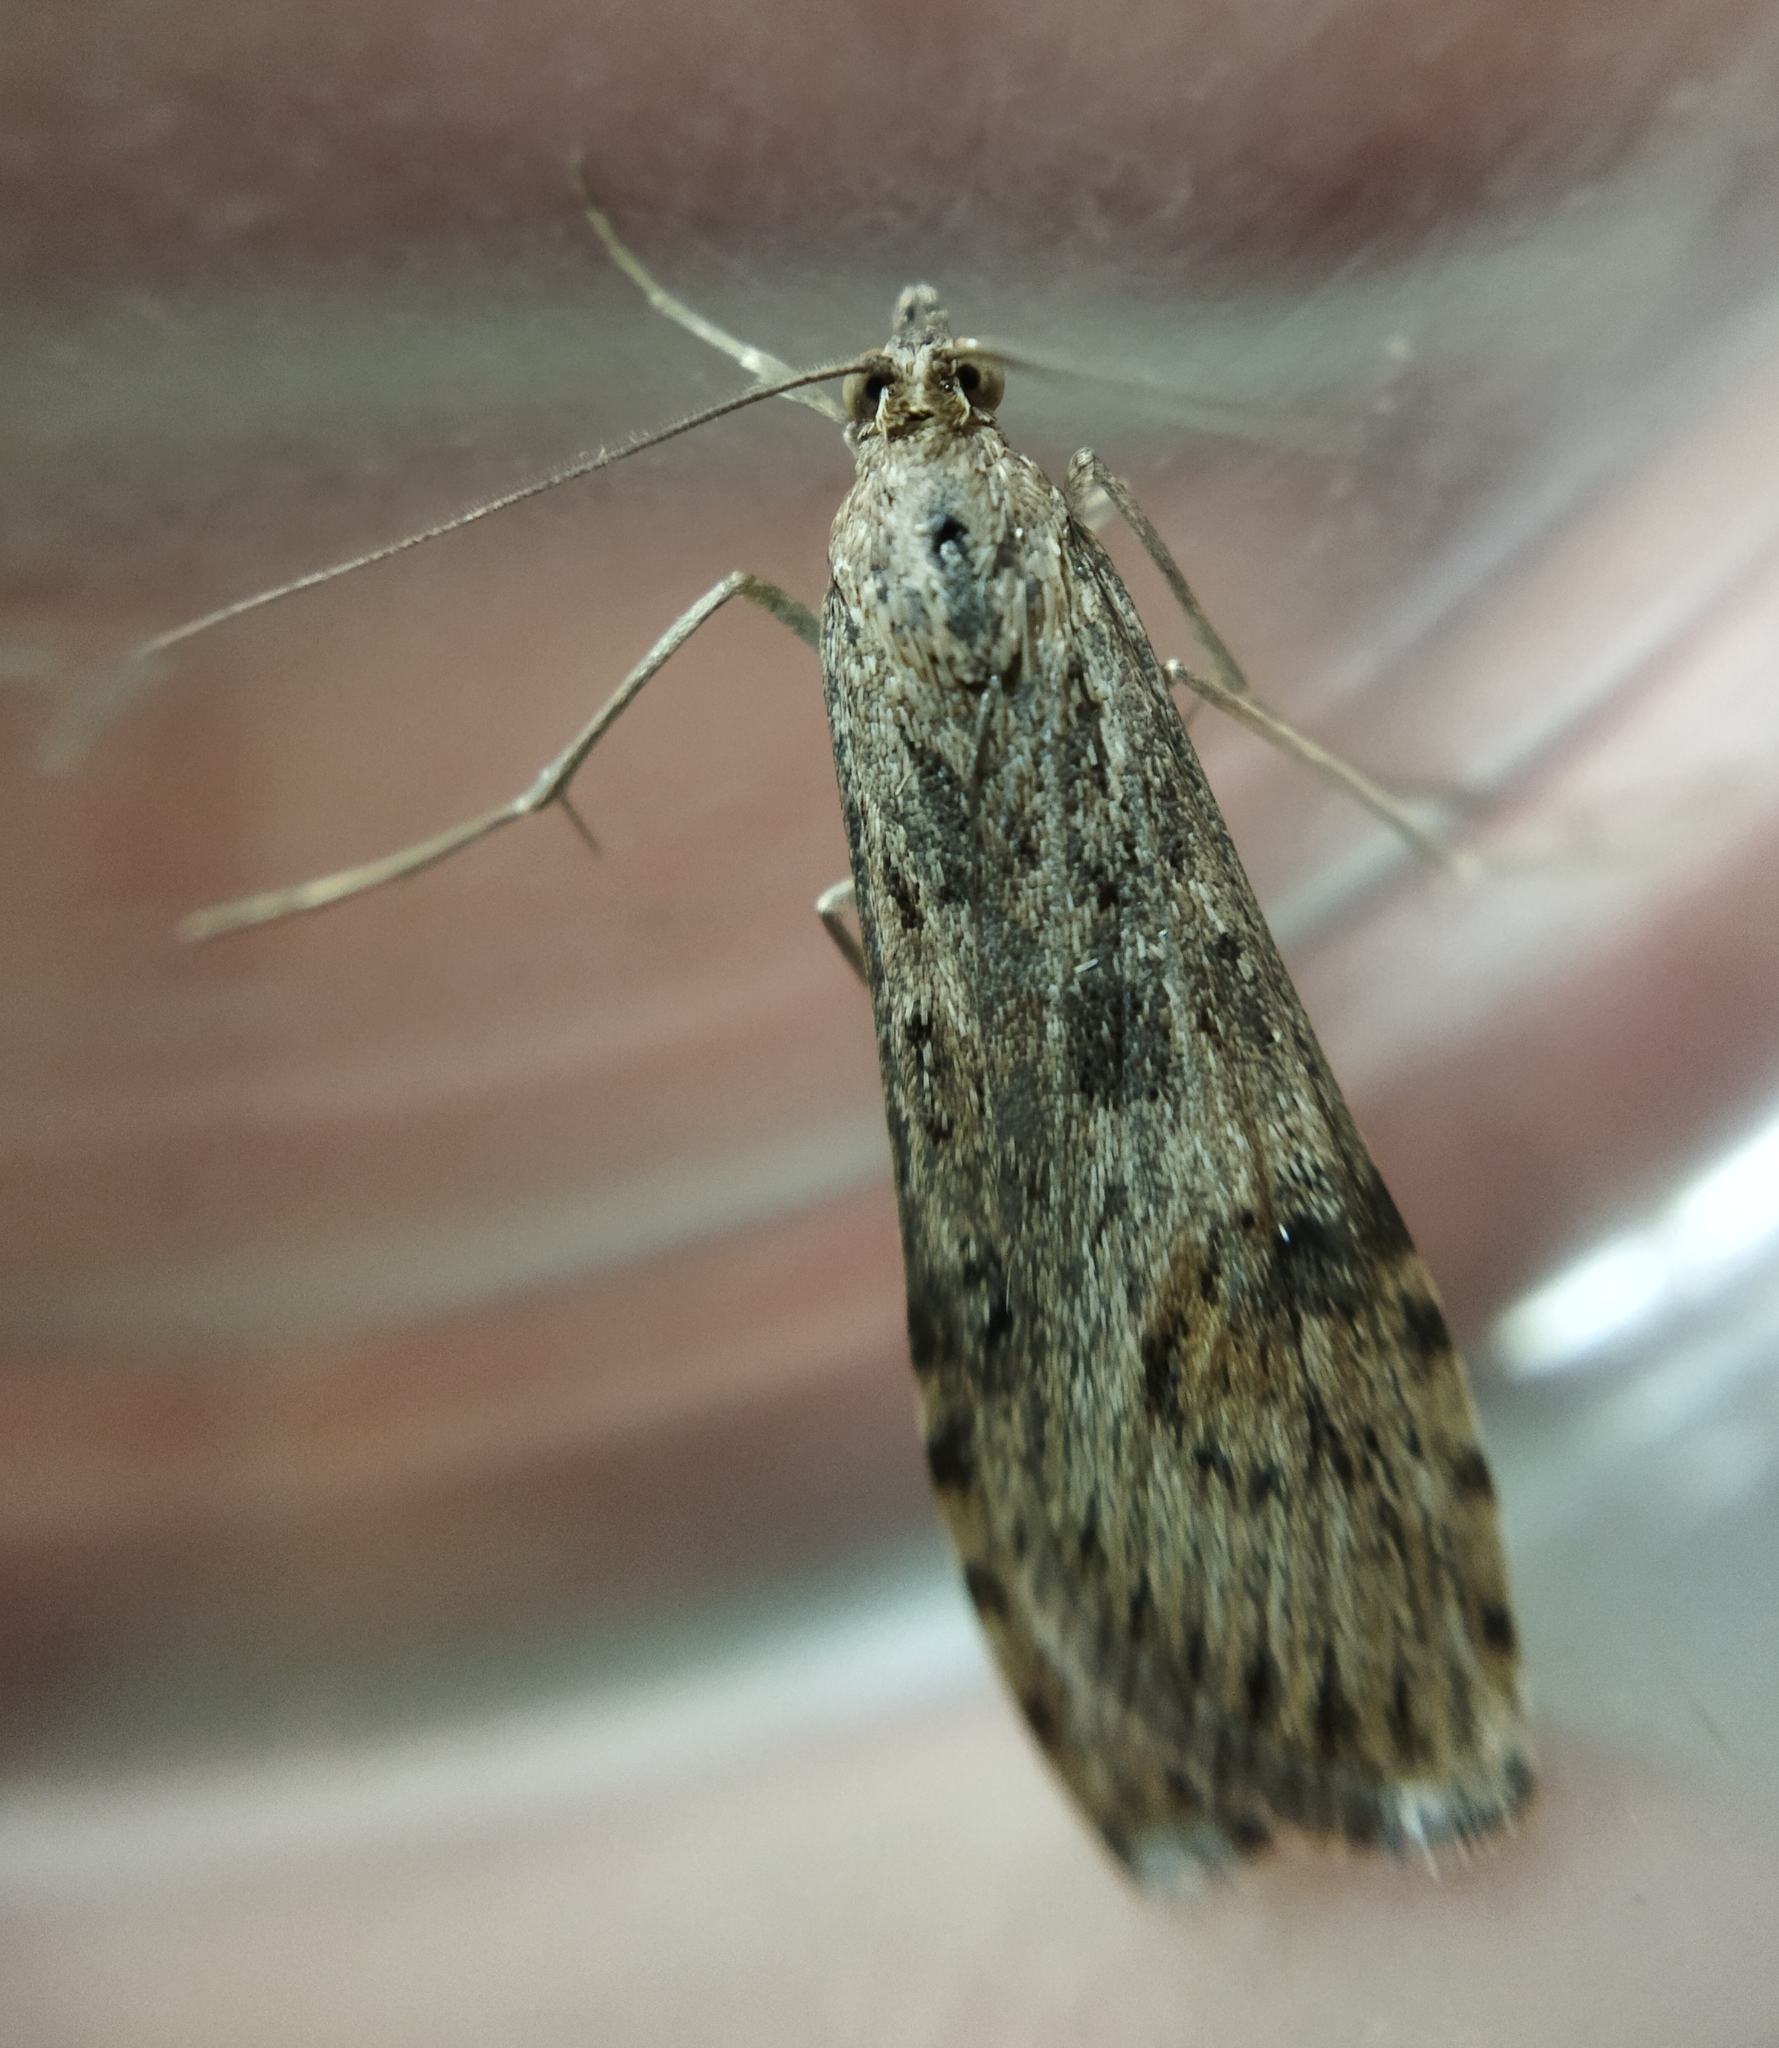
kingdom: Animalia
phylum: Arthropoda
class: Insecta
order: Lepidoptera
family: Crambidae
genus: Nomophila
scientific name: Nomophila noctuella
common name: Rush veneer
